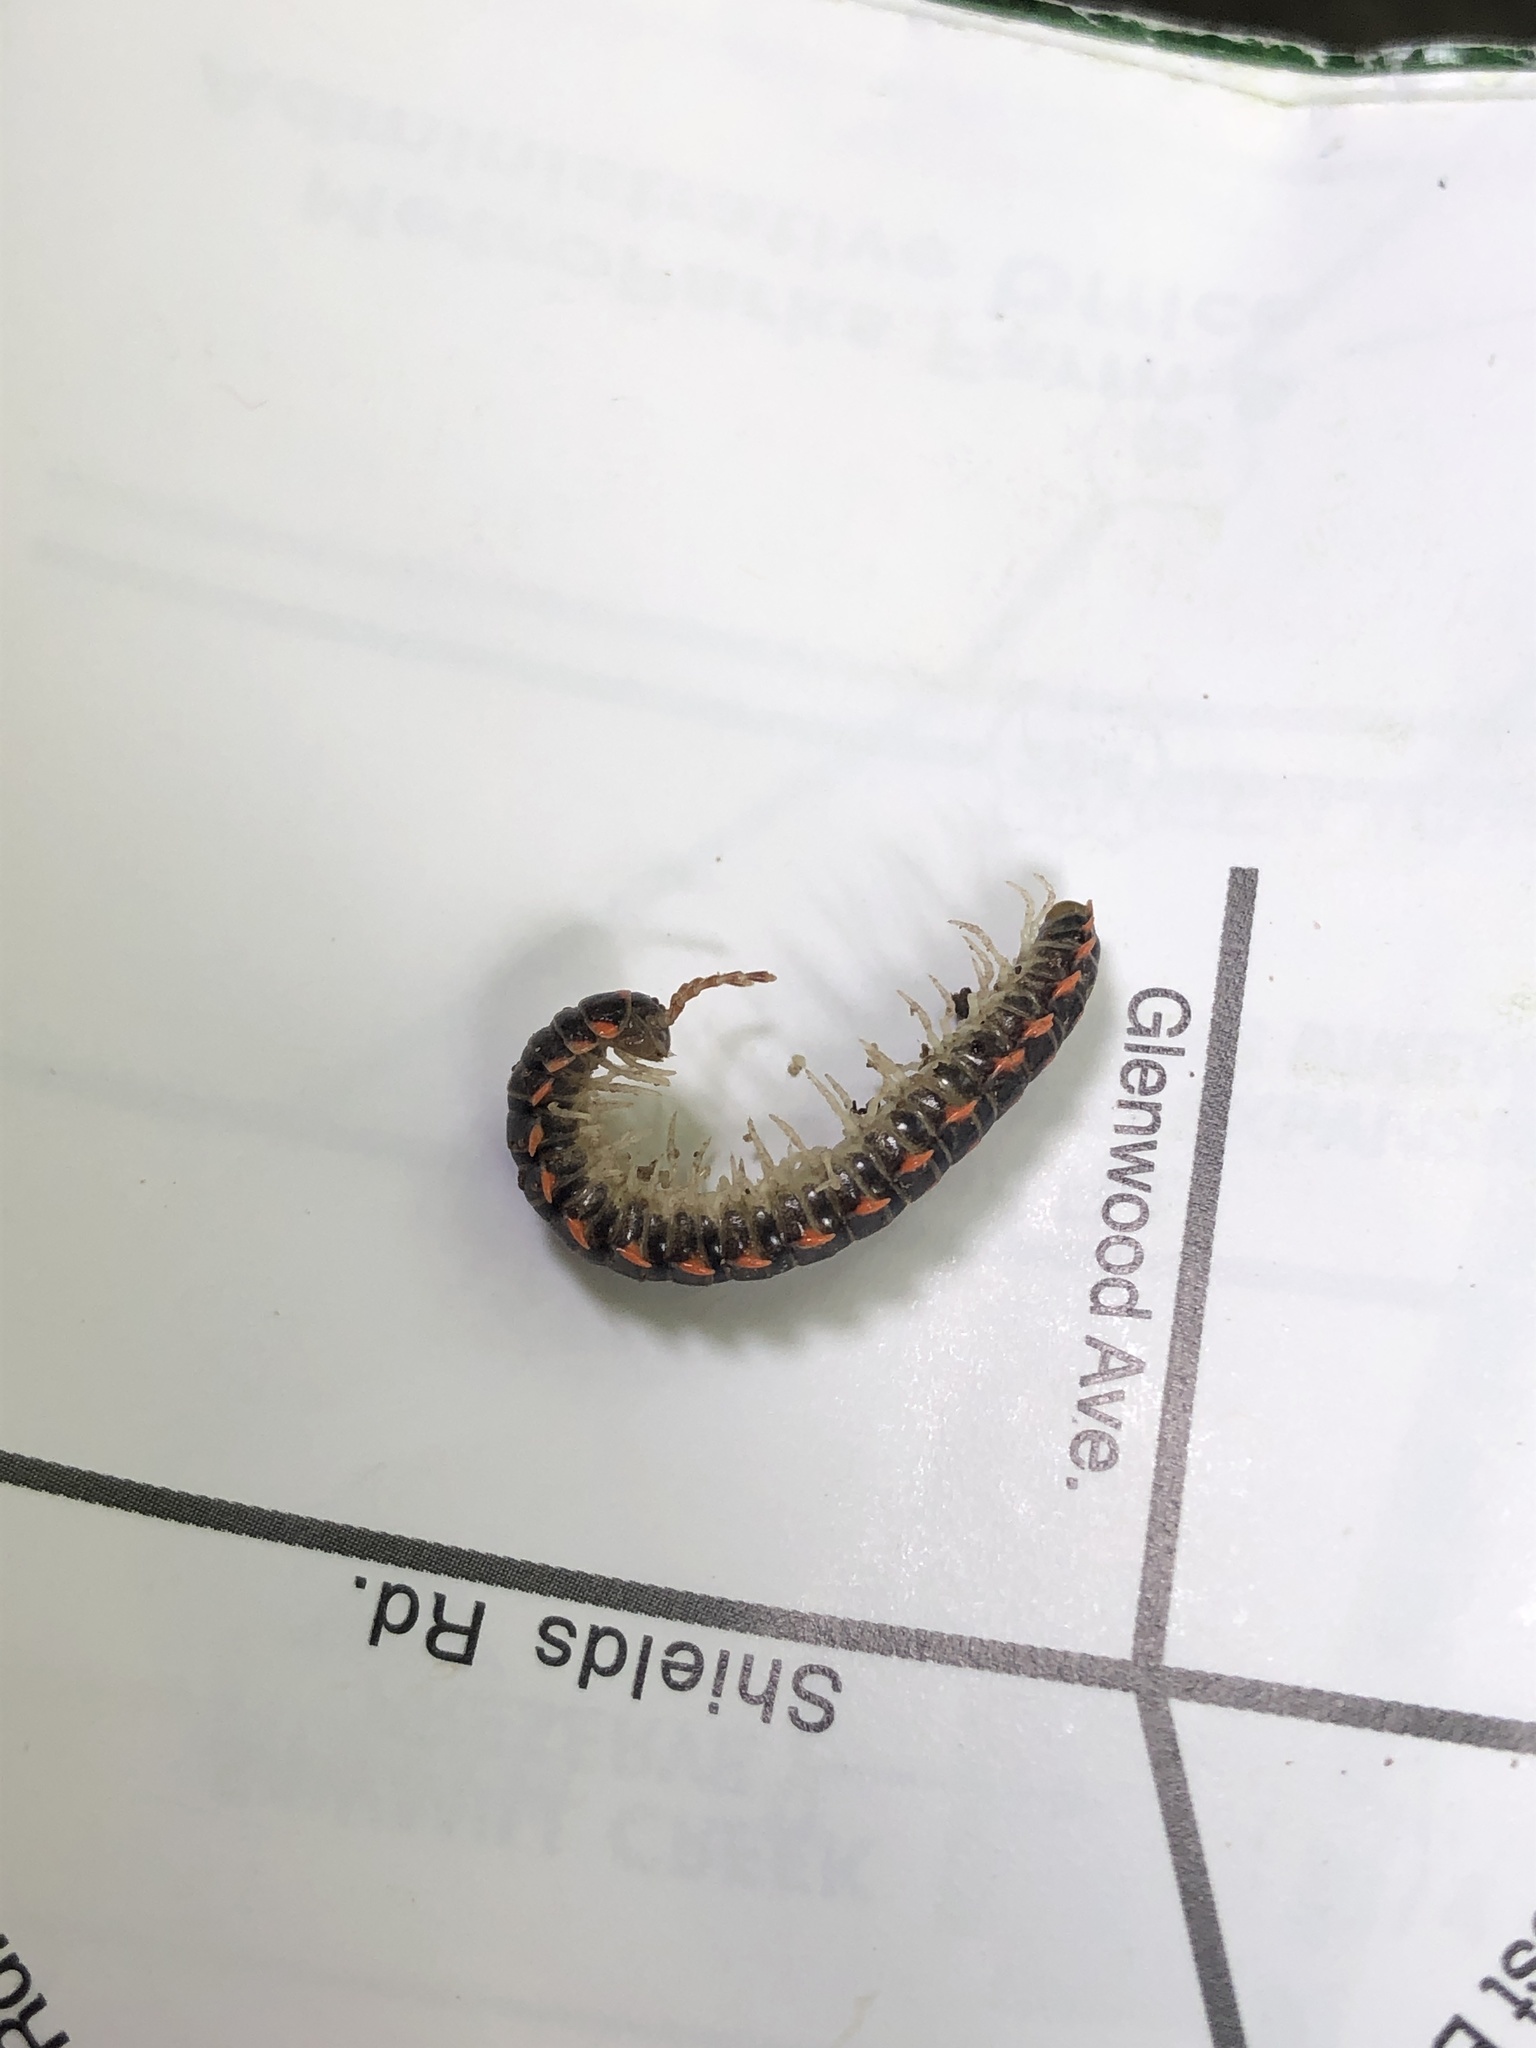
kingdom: Animalia
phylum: Arthropoda
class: Diplopoda
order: Polydesmida
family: Xystodesmidae
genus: Euryurus
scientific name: Euryurus leachii
